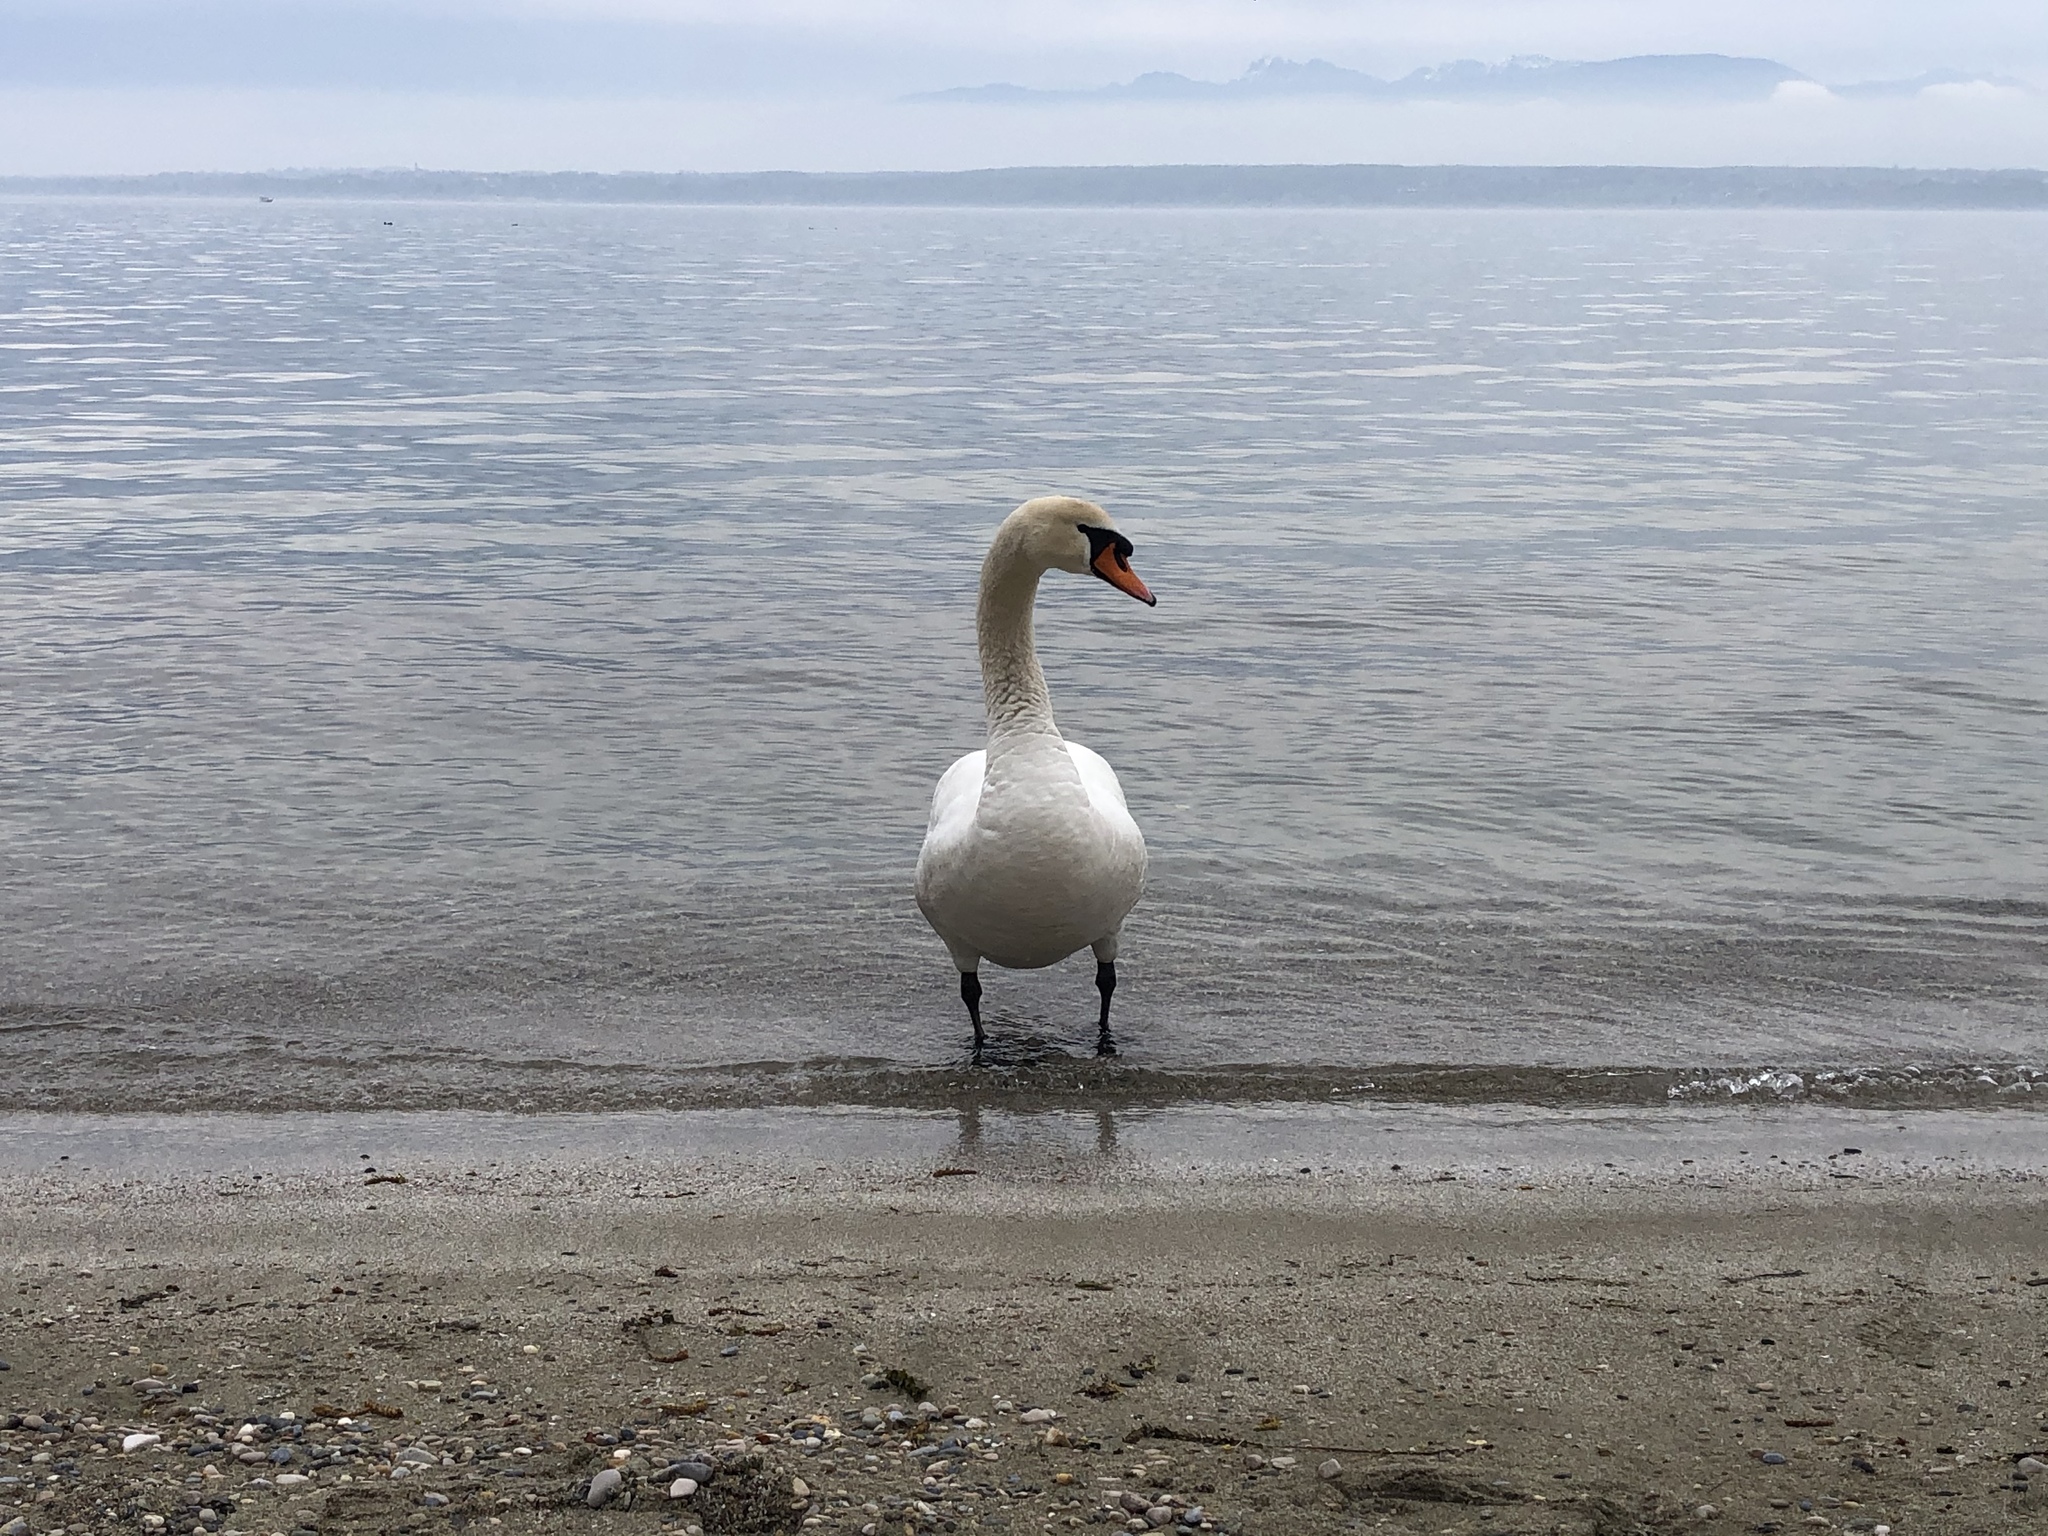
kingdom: Animalia
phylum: Chordata
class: Aves
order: Anseriformes
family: Anatidae
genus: Cygnus
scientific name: Cygnus olor
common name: Mute swan
